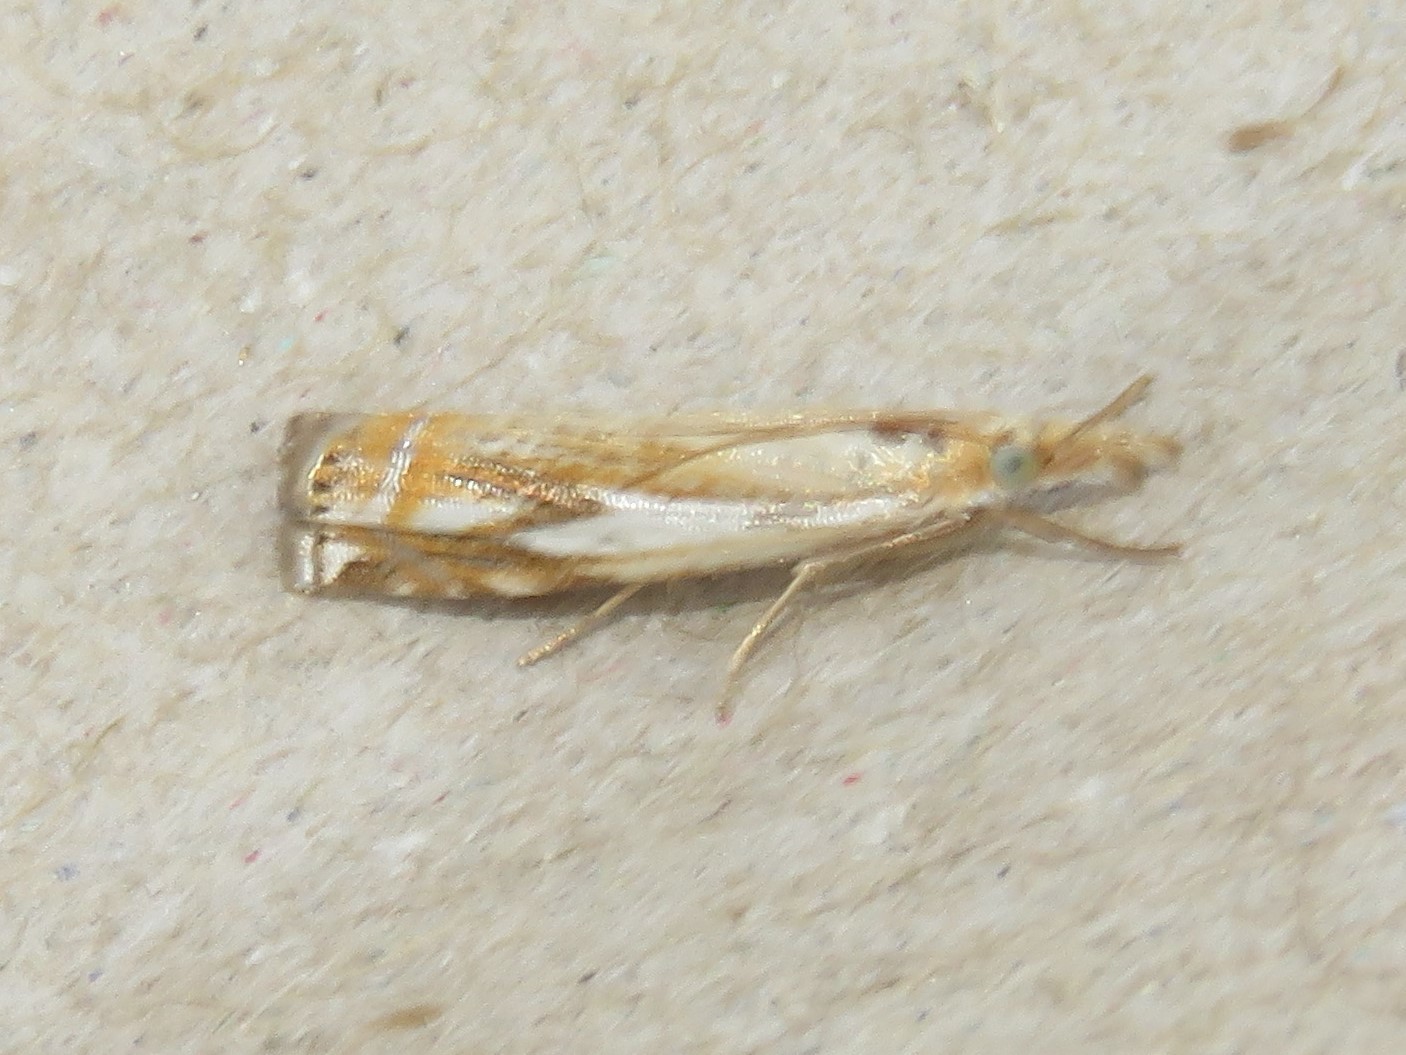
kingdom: Animalia
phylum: Arthropoda
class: Insecta
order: Lepidoptera
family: Crambidae
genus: Crambus
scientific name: Crambus agitatellus
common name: Double-banded grass-veneer
